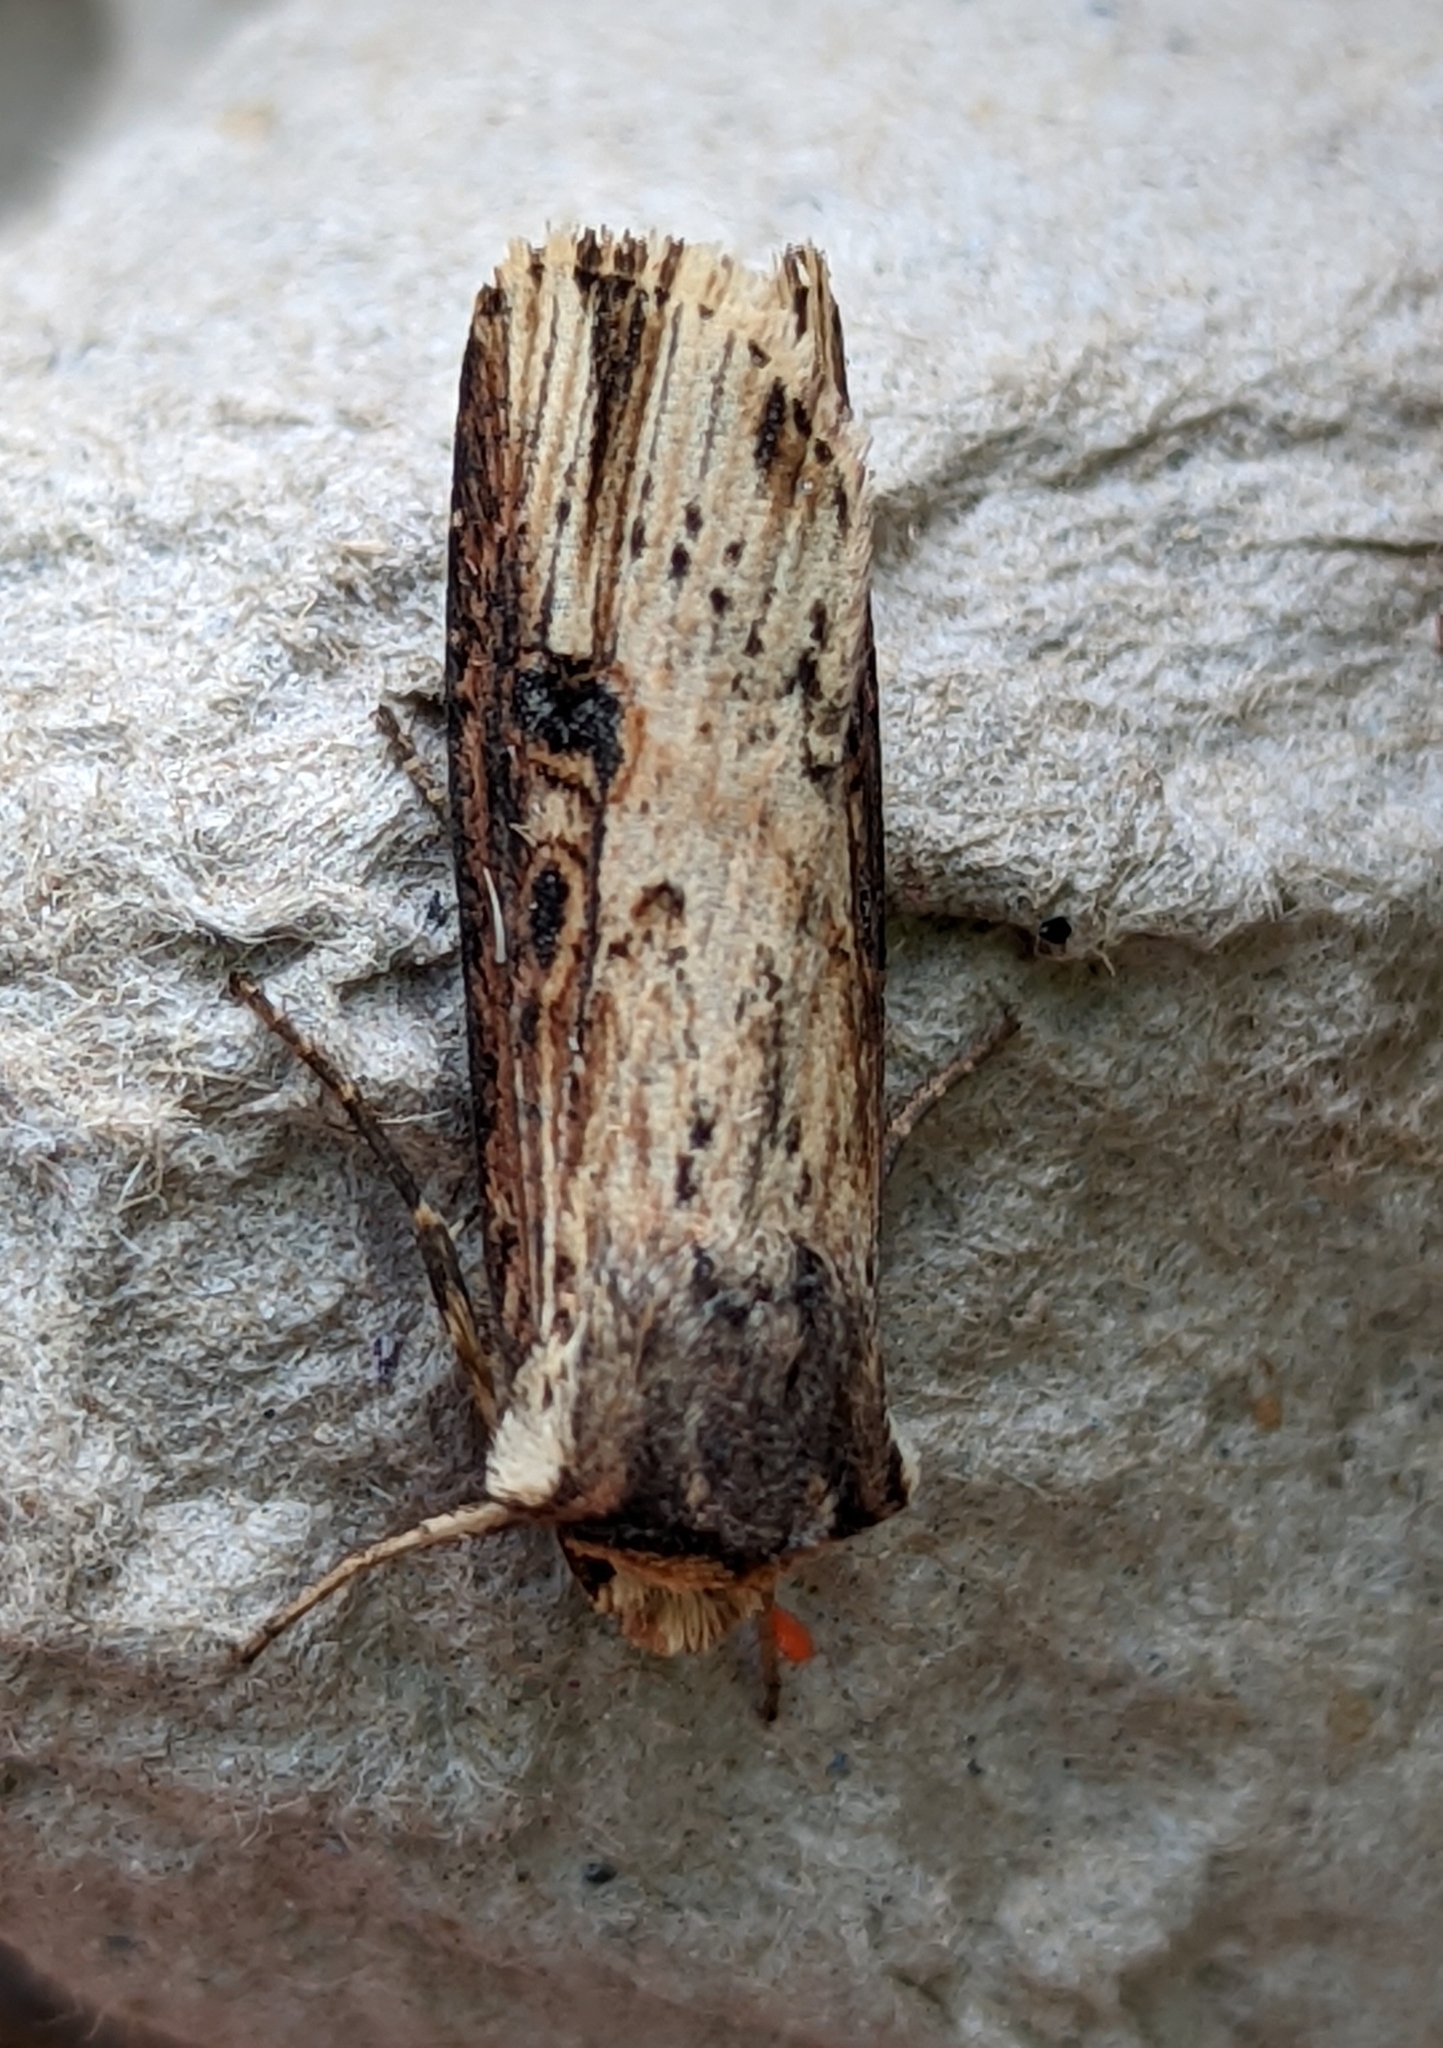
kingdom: Animalia
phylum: Arthropoda
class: Insecta
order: Lepidoptera
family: Noctuidae
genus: Axylia
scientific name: Axylia putris
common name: Flame
